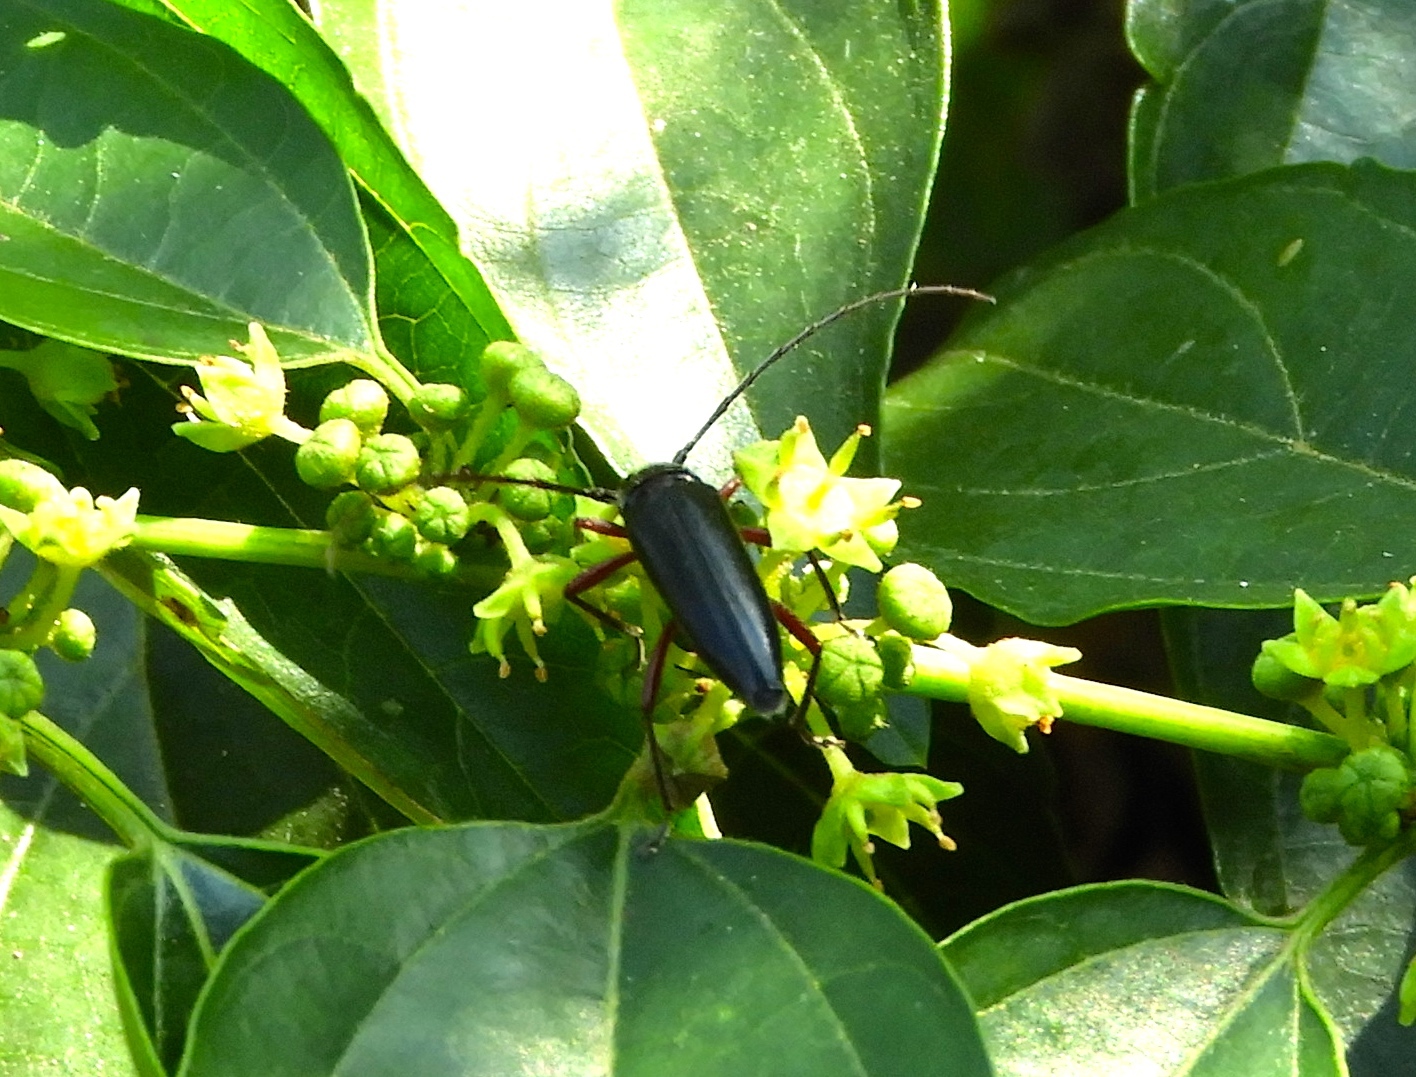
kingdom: Animalia
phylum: Arthropoda
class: Insecta
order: Coleoptera
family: Cerambycidae
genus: Stenosphenus
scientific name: Stenosphenus
